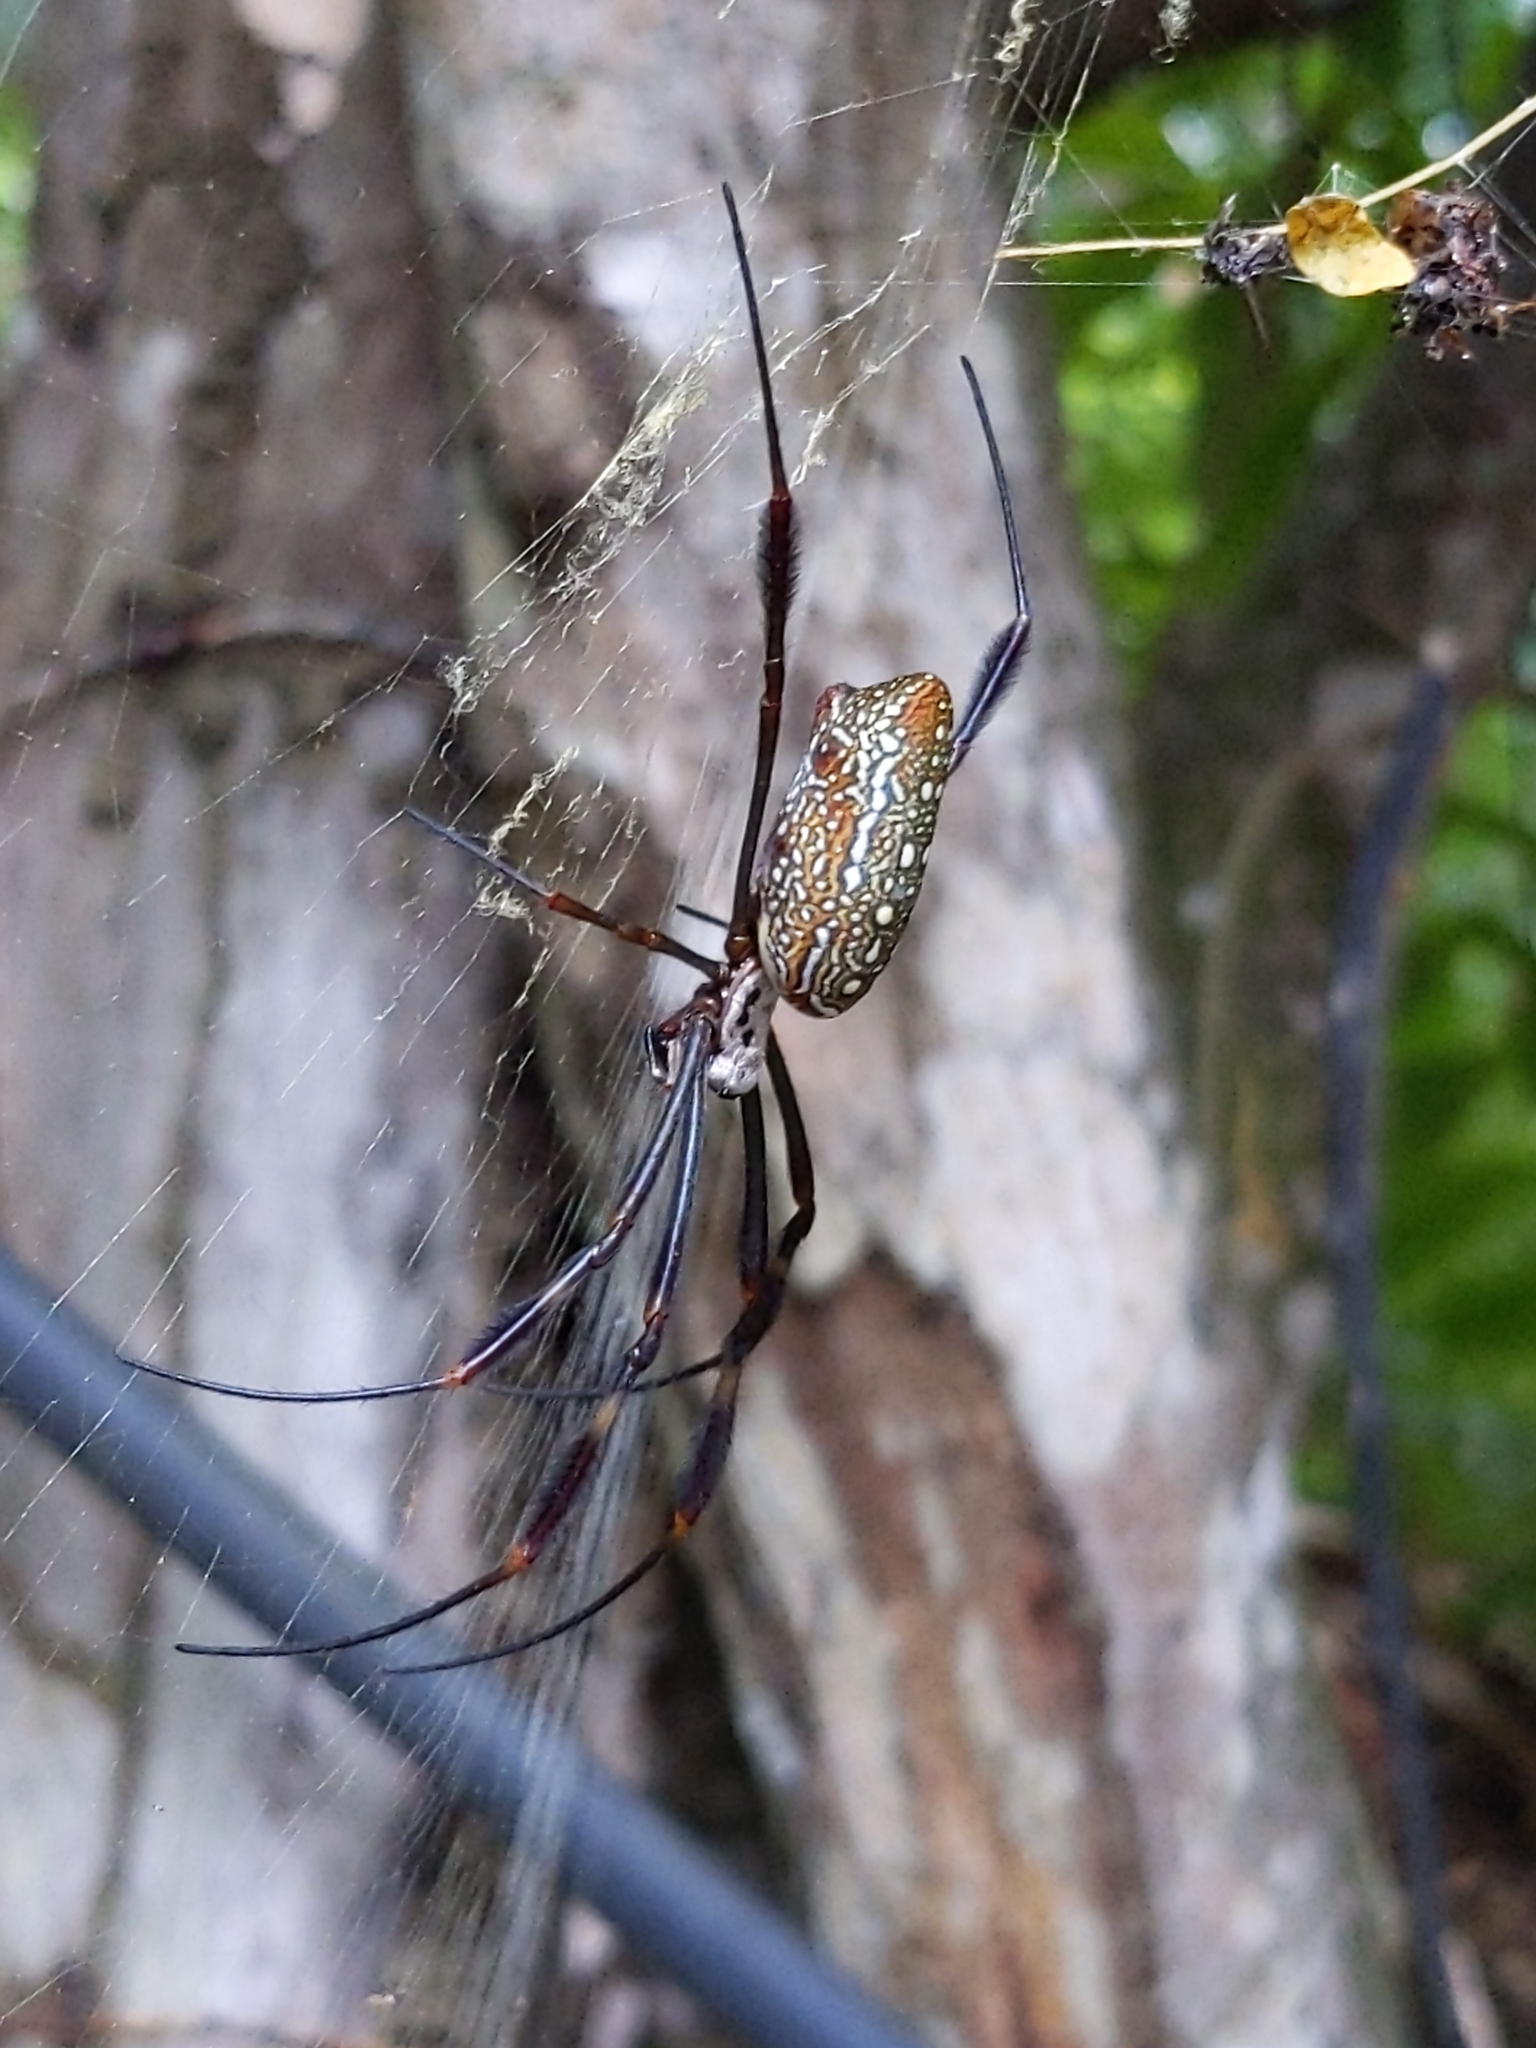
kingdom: Animalia
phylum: Arthropoda
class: Arachnida
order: Araneae
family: Araneidae
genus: Trichonephila
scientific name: Trichonephila clavipes
